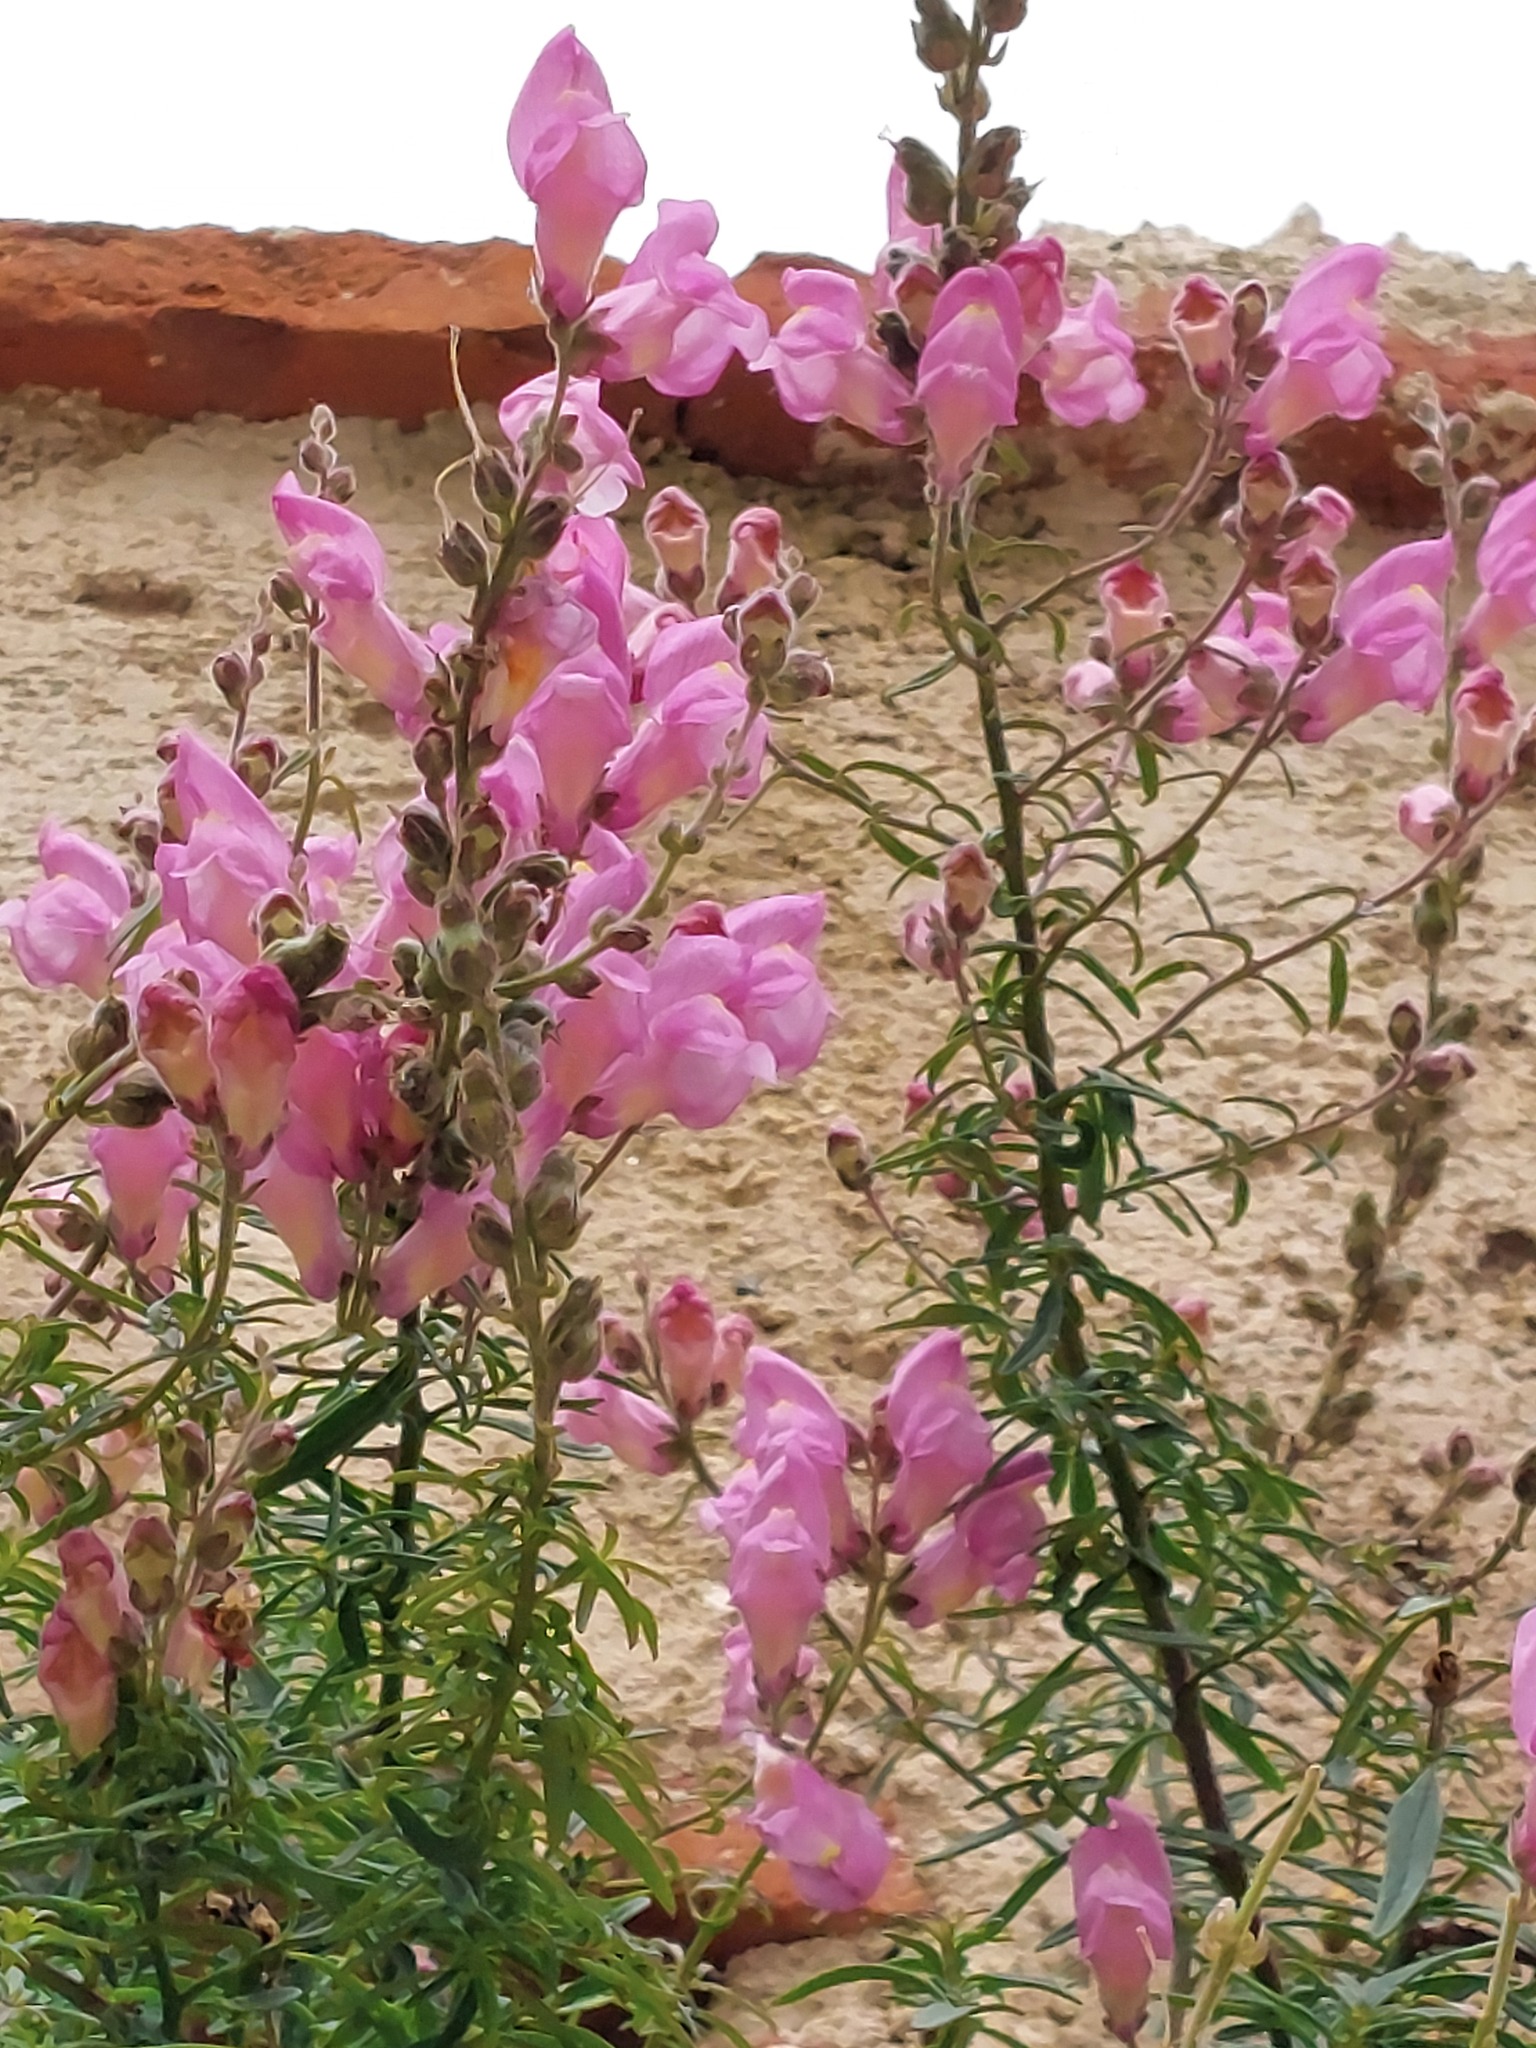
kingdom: Plantae
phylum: Tracheophyta
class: Magnoliopsida
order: Lamiales
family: Plantaginaceae
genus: Antirrhinum
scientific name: Antirrhinum tortuosum
